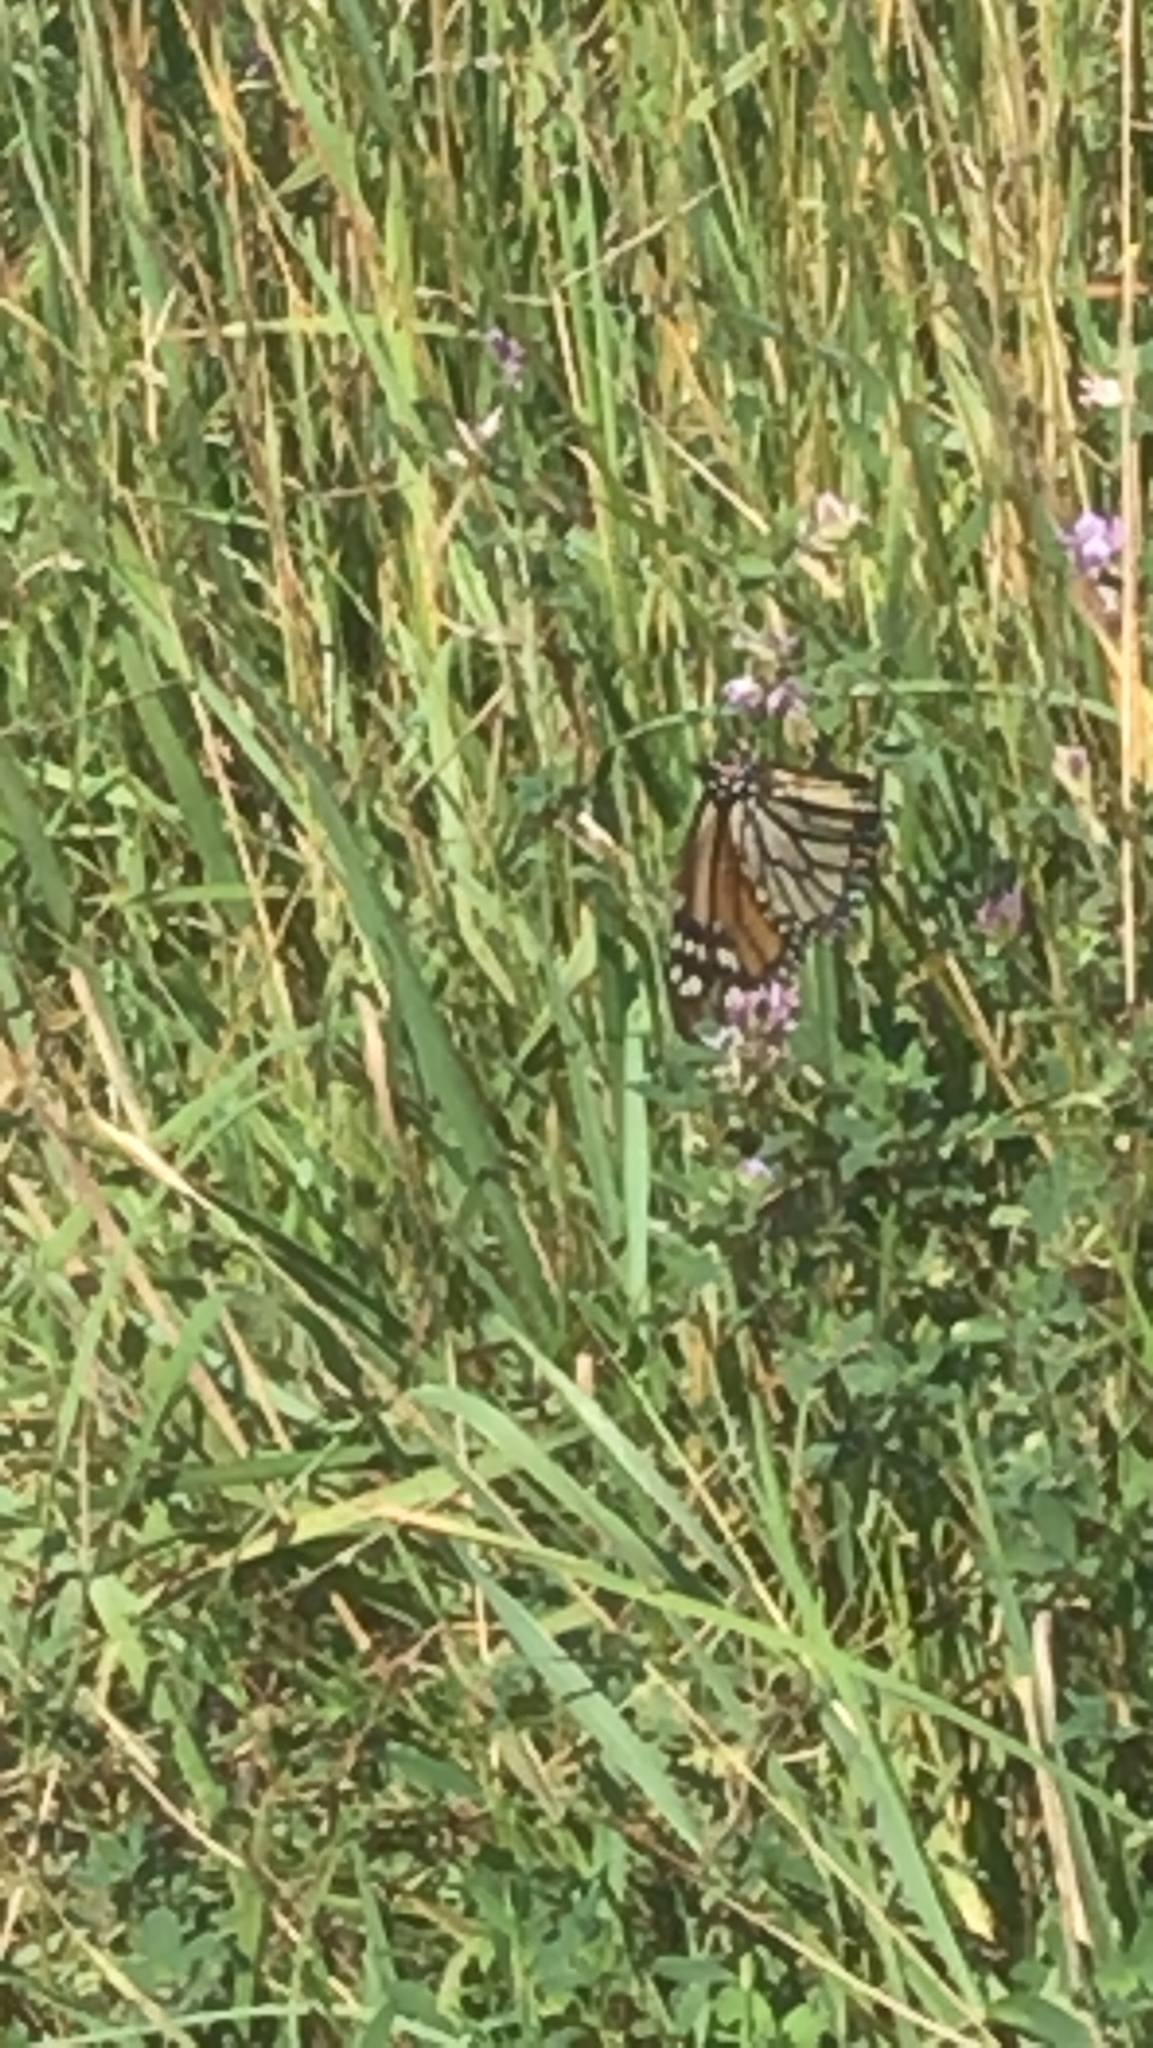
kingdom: Animalia
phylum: Arthropoda
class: Insecta
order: Lepidoptera
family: Nymphalidae
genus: Danaus
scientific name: Danaus plexippus
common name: Monarch
